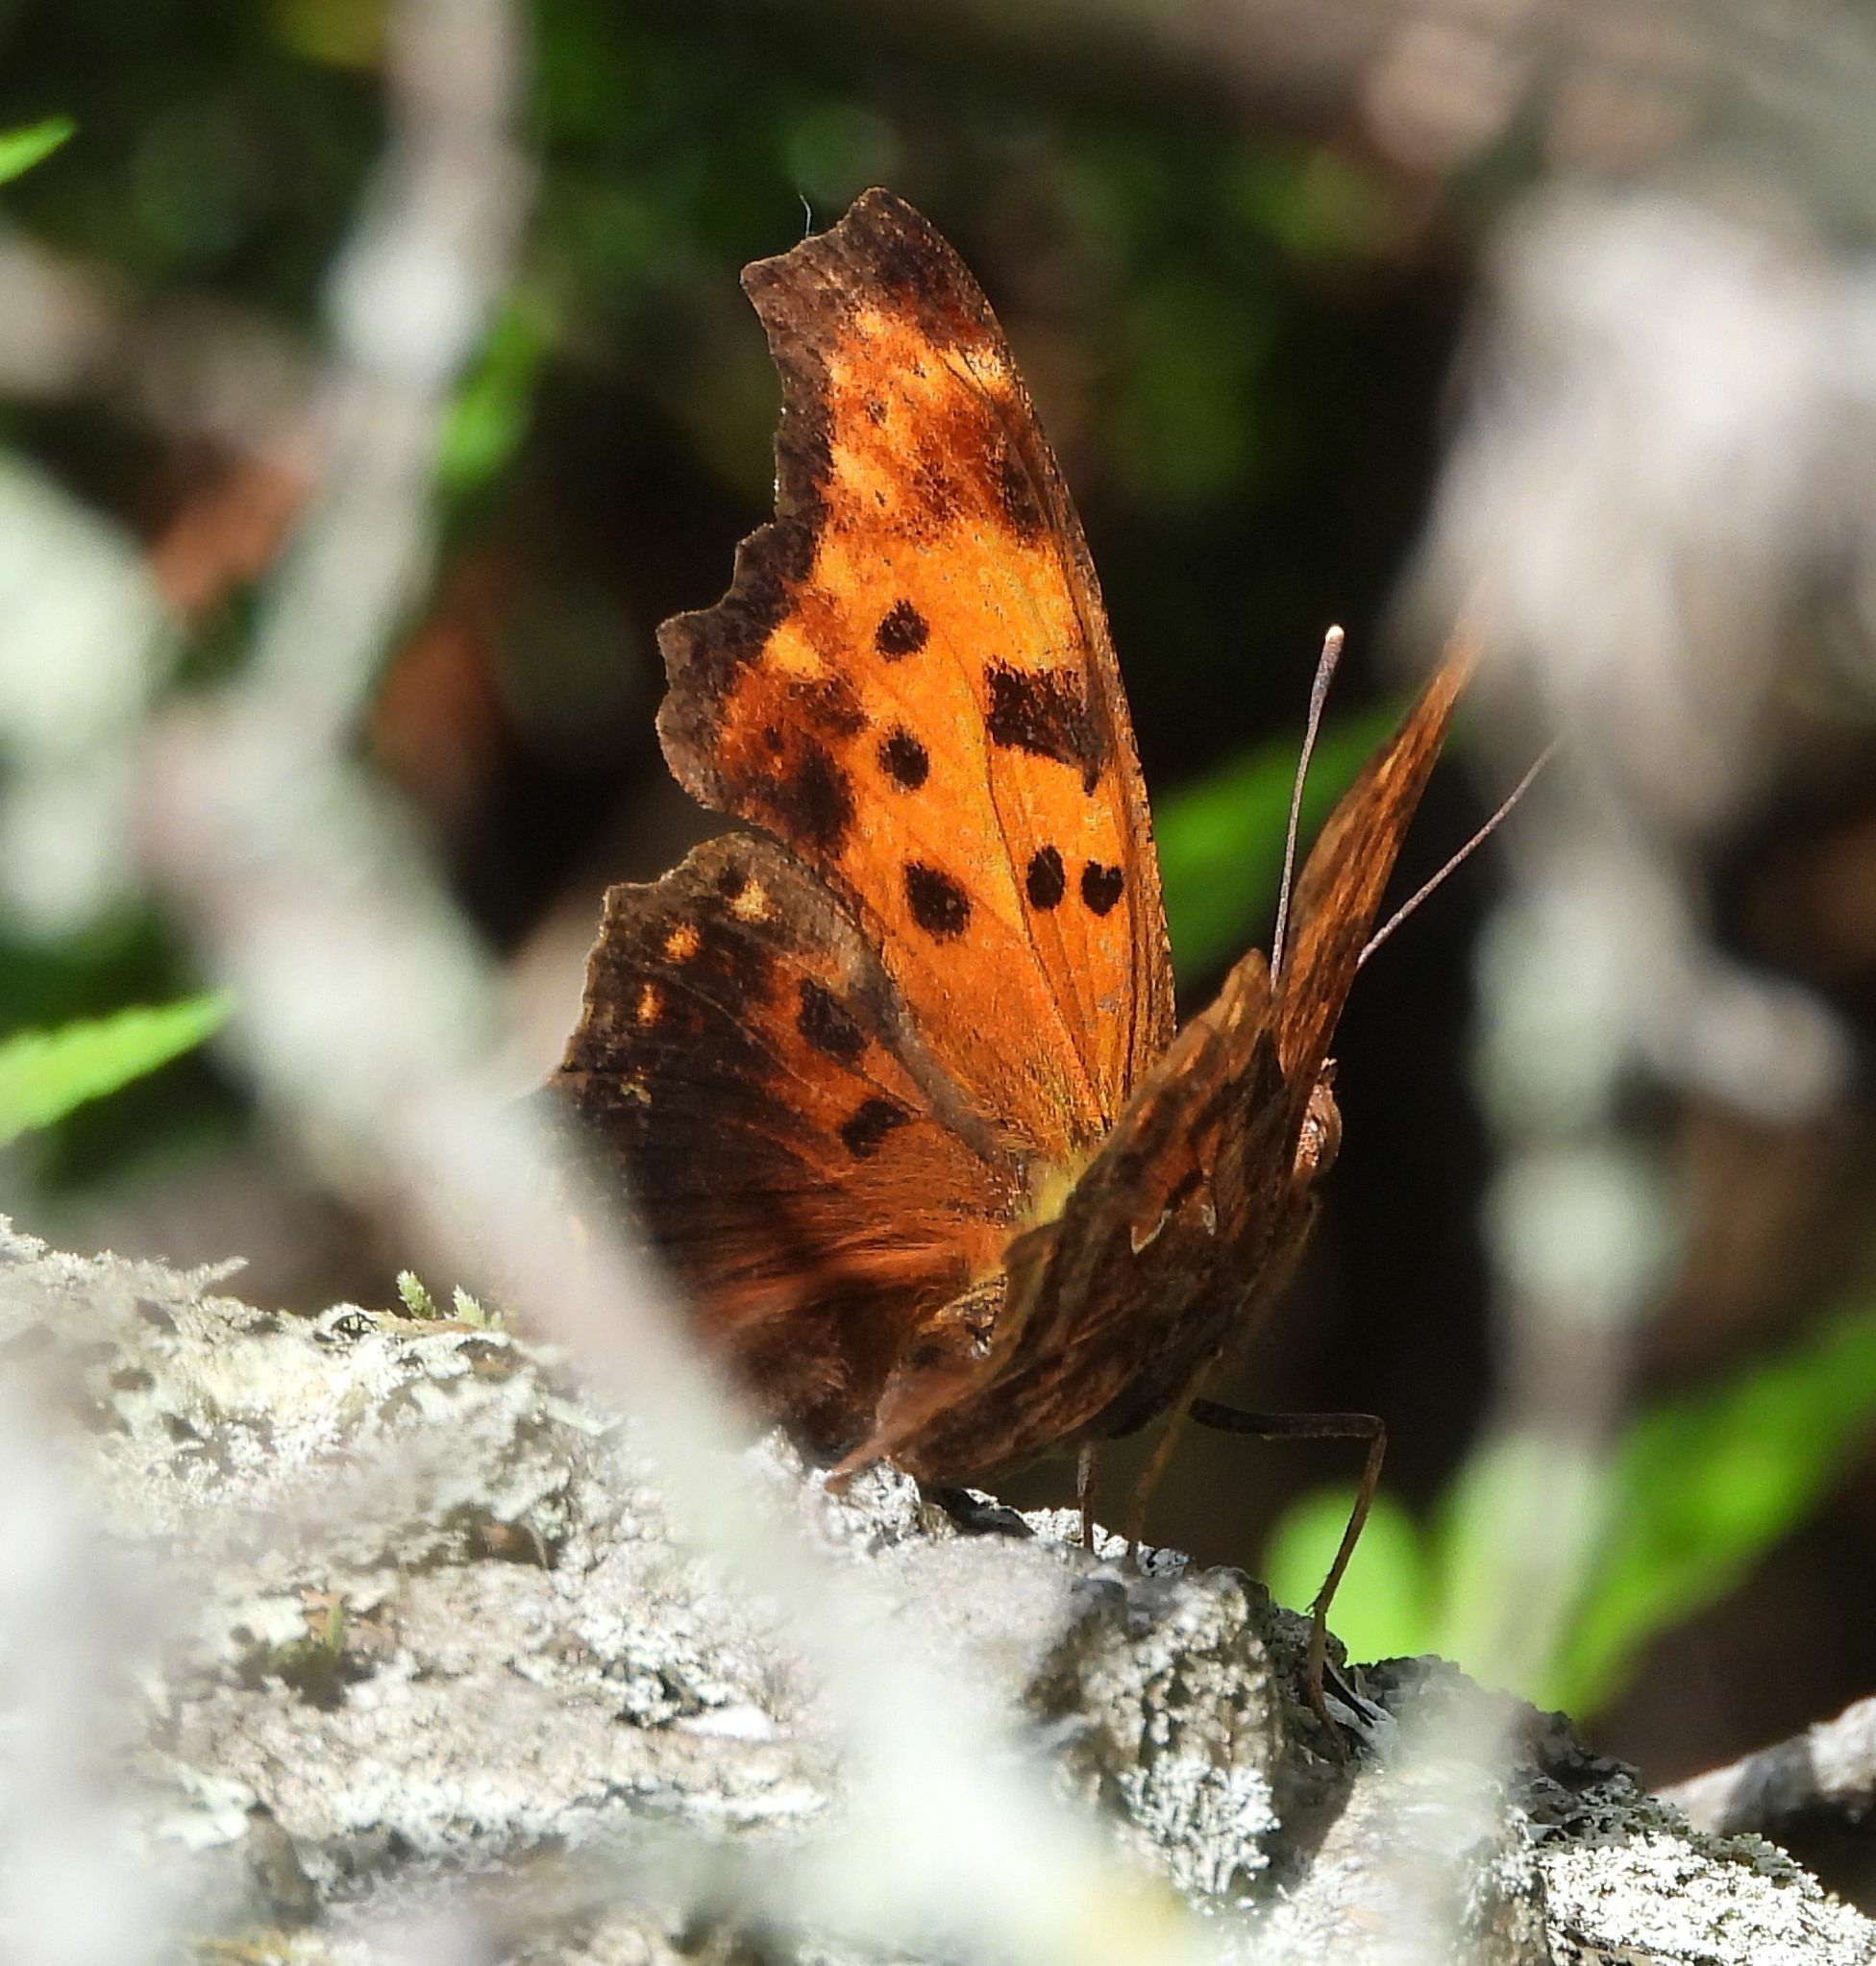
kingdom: Animalia
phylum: Arthropoda
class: Insecta
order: Lepidoptera
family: Nymphalidae
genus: Polygonia
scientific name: Polygonia comma
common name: Eastern comma
